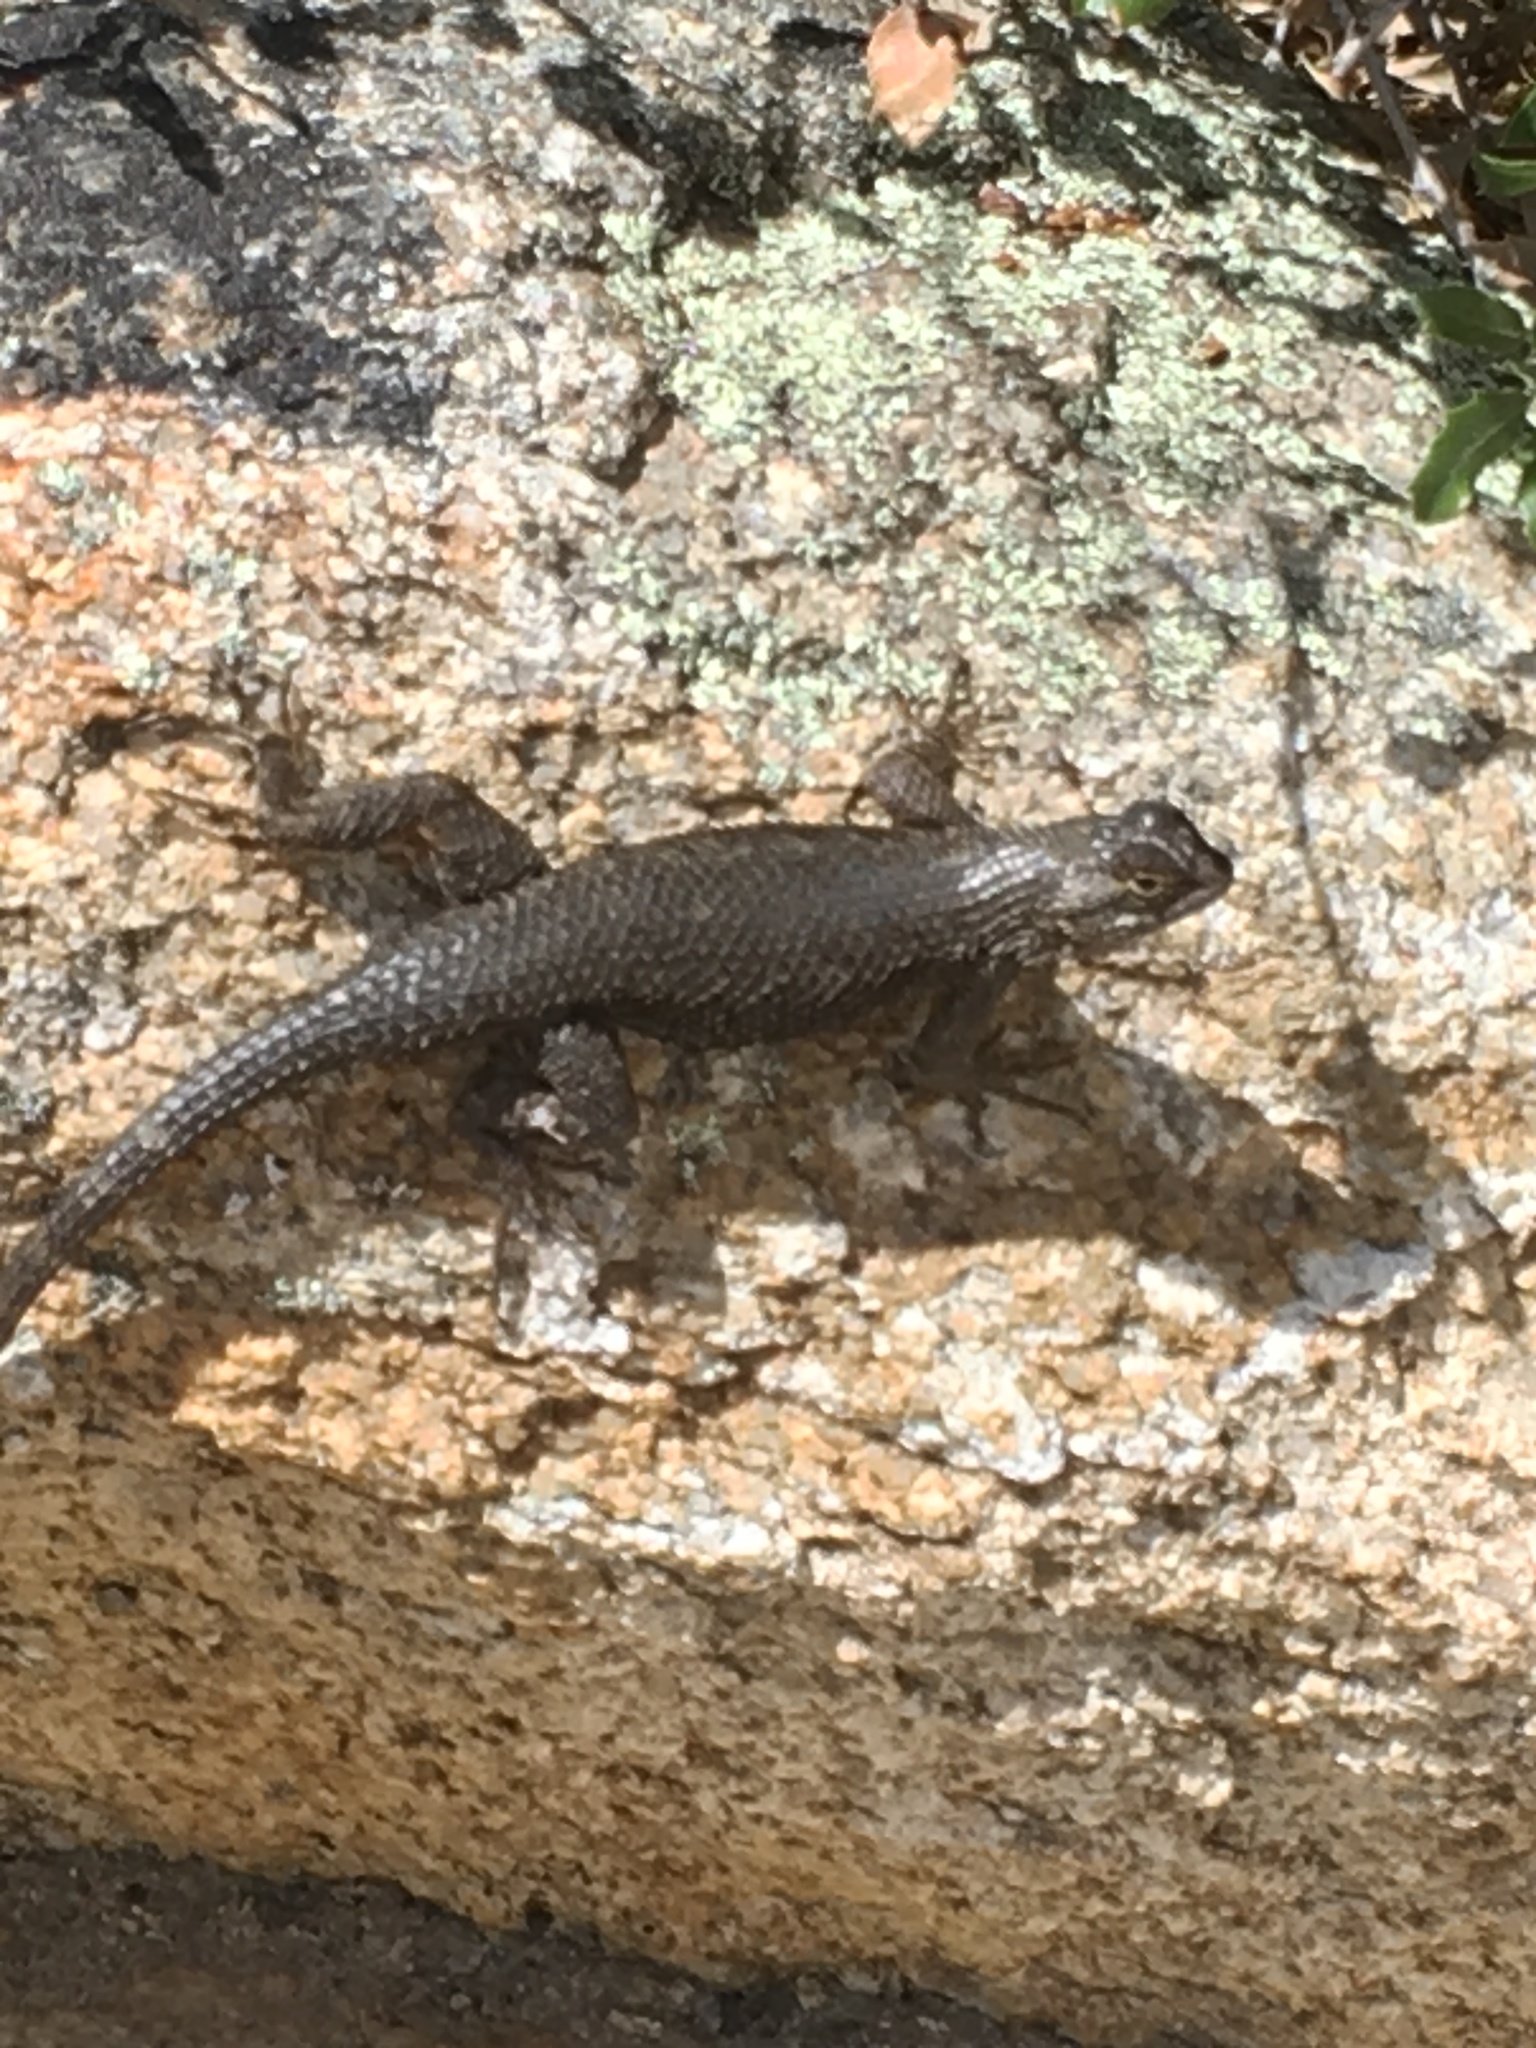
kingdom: Animalia
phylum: Chordata
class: Squamata
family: Phrynosomatidae
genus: Sceloporus
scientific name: Sceloporus occidentalis
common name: Western fence lizard
